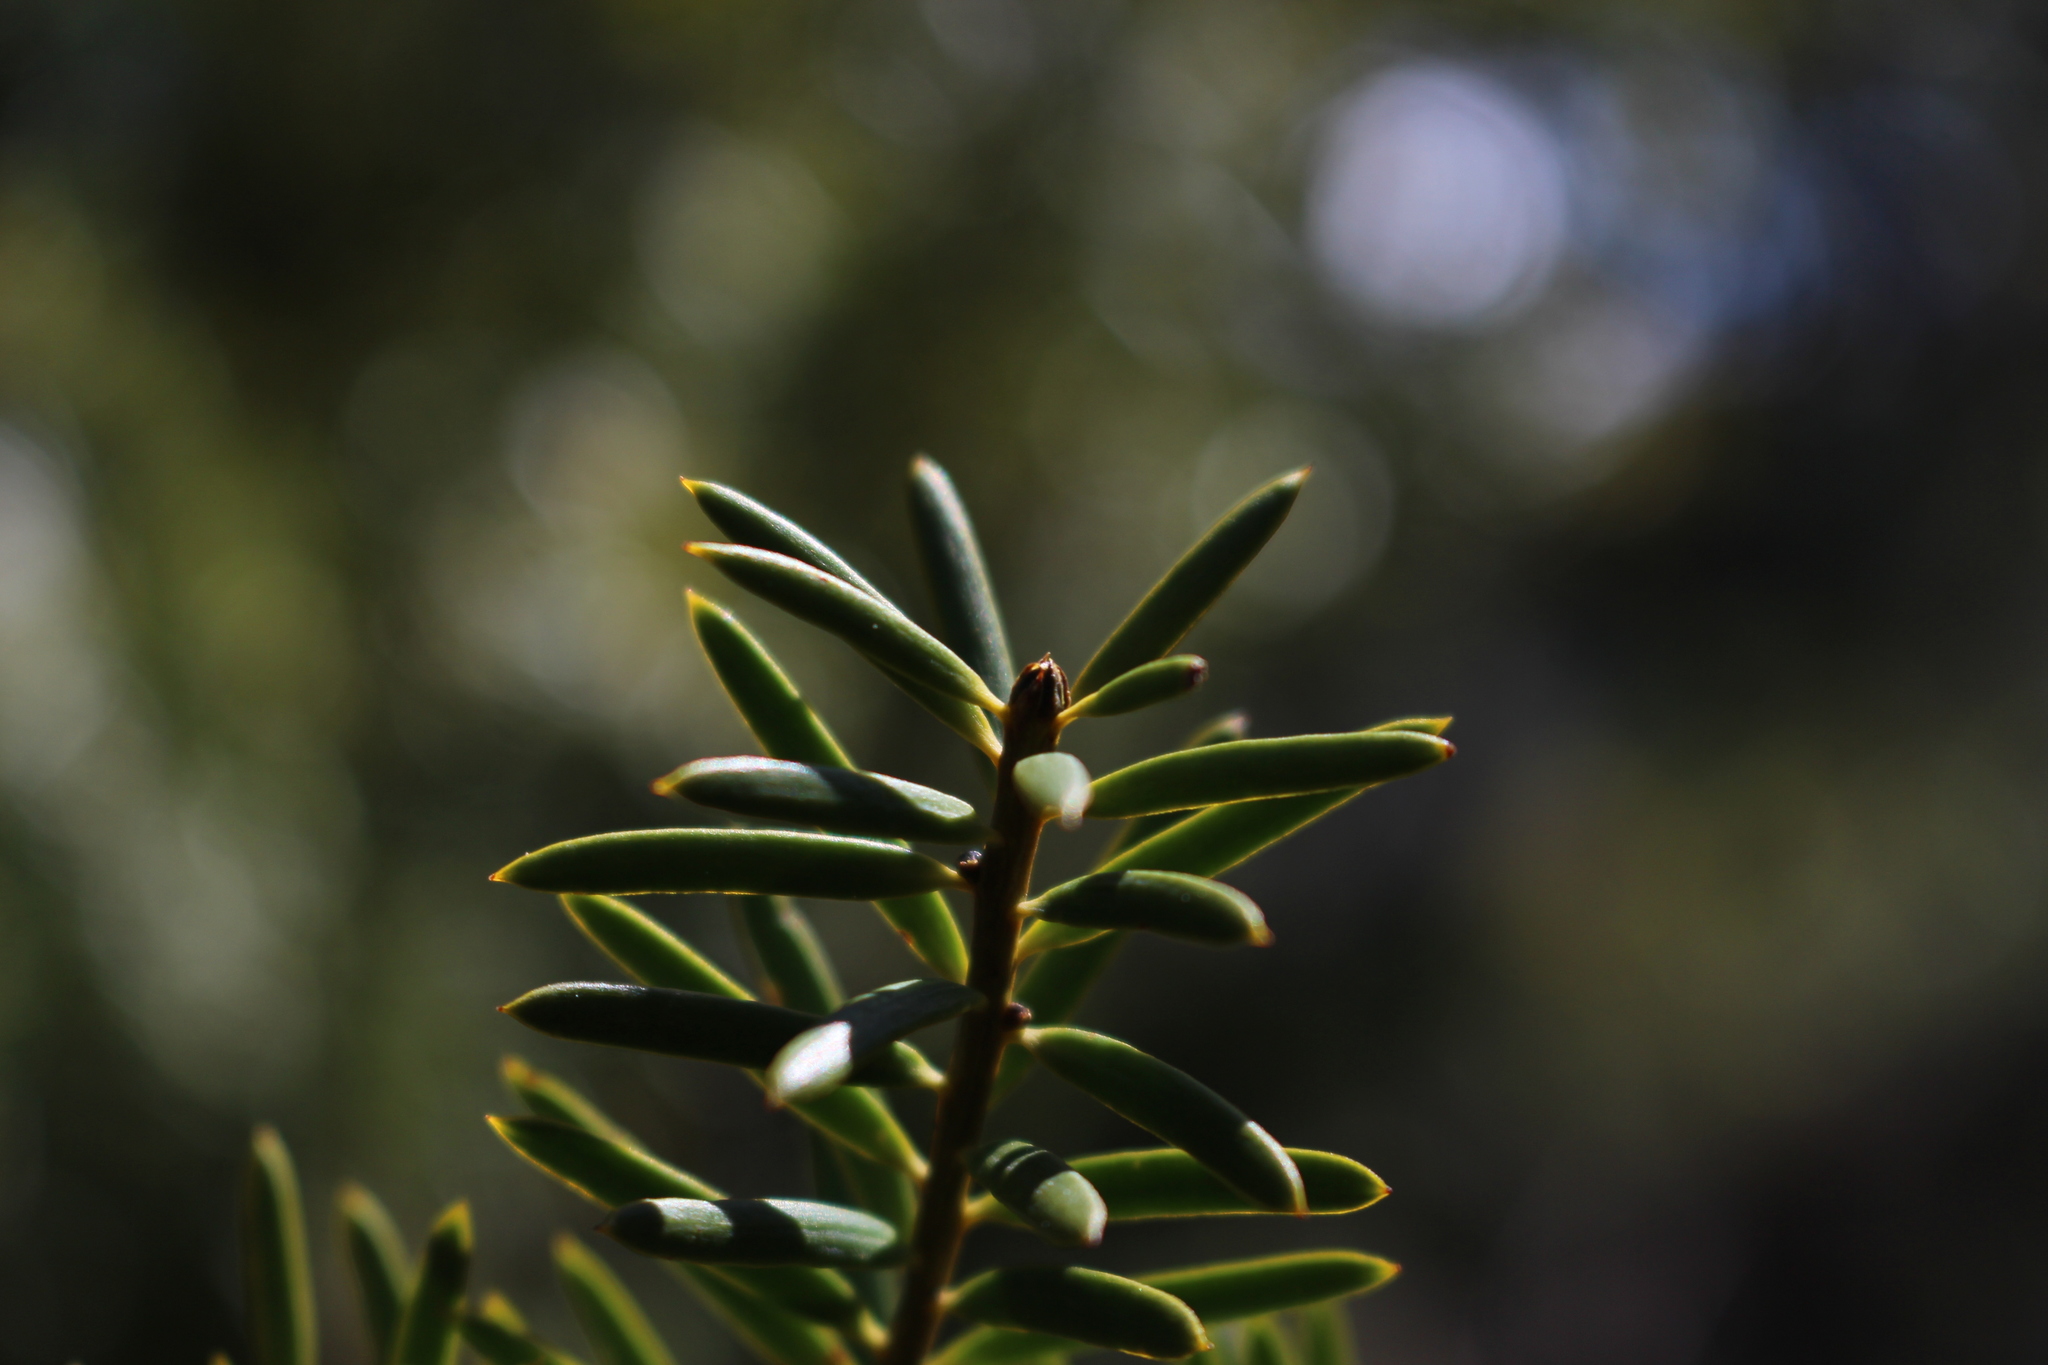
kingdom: Plantae
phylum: Tracheophyta
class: Pinopsida
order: Pinales
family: Podocarpaceae
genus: Podocarpus
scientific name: Podocarpus totara
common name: Totara
